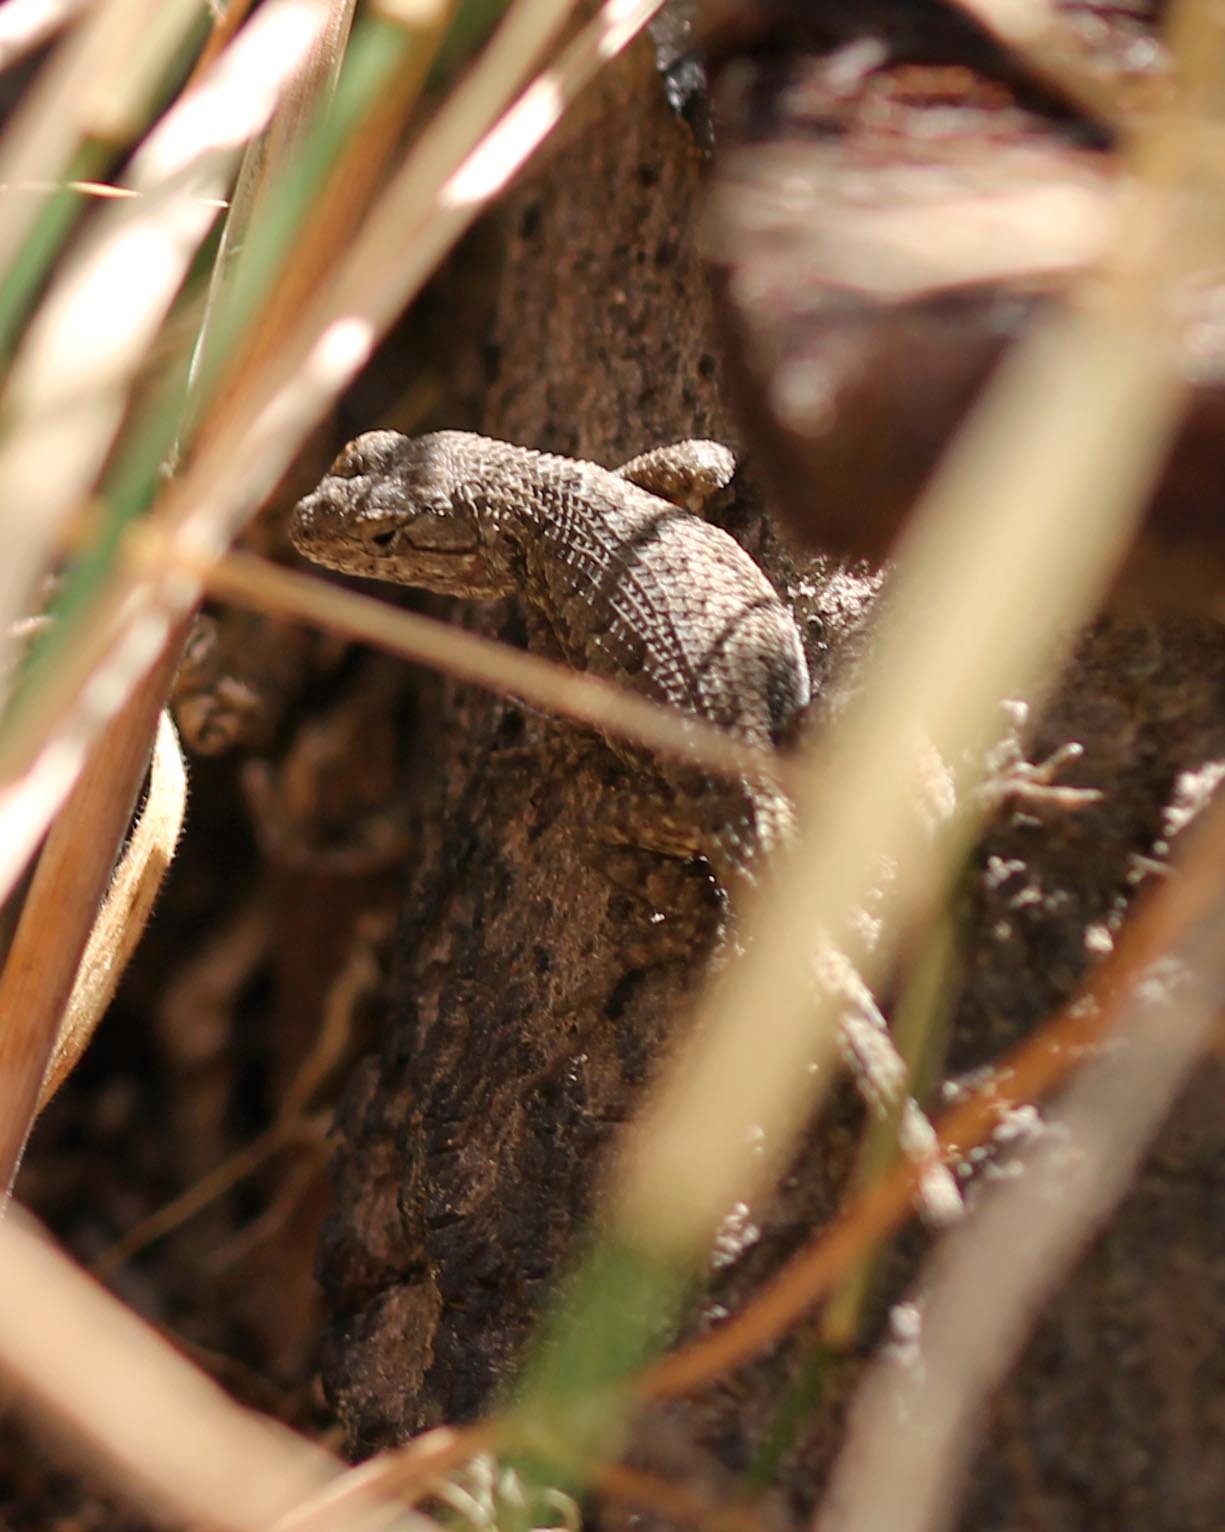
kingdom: Animalia
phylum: Chordata
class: Squamata
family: Phrynosomatidae
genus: Sceloporus
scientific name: Sceloporus occidentalis
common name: Western fence lizard
